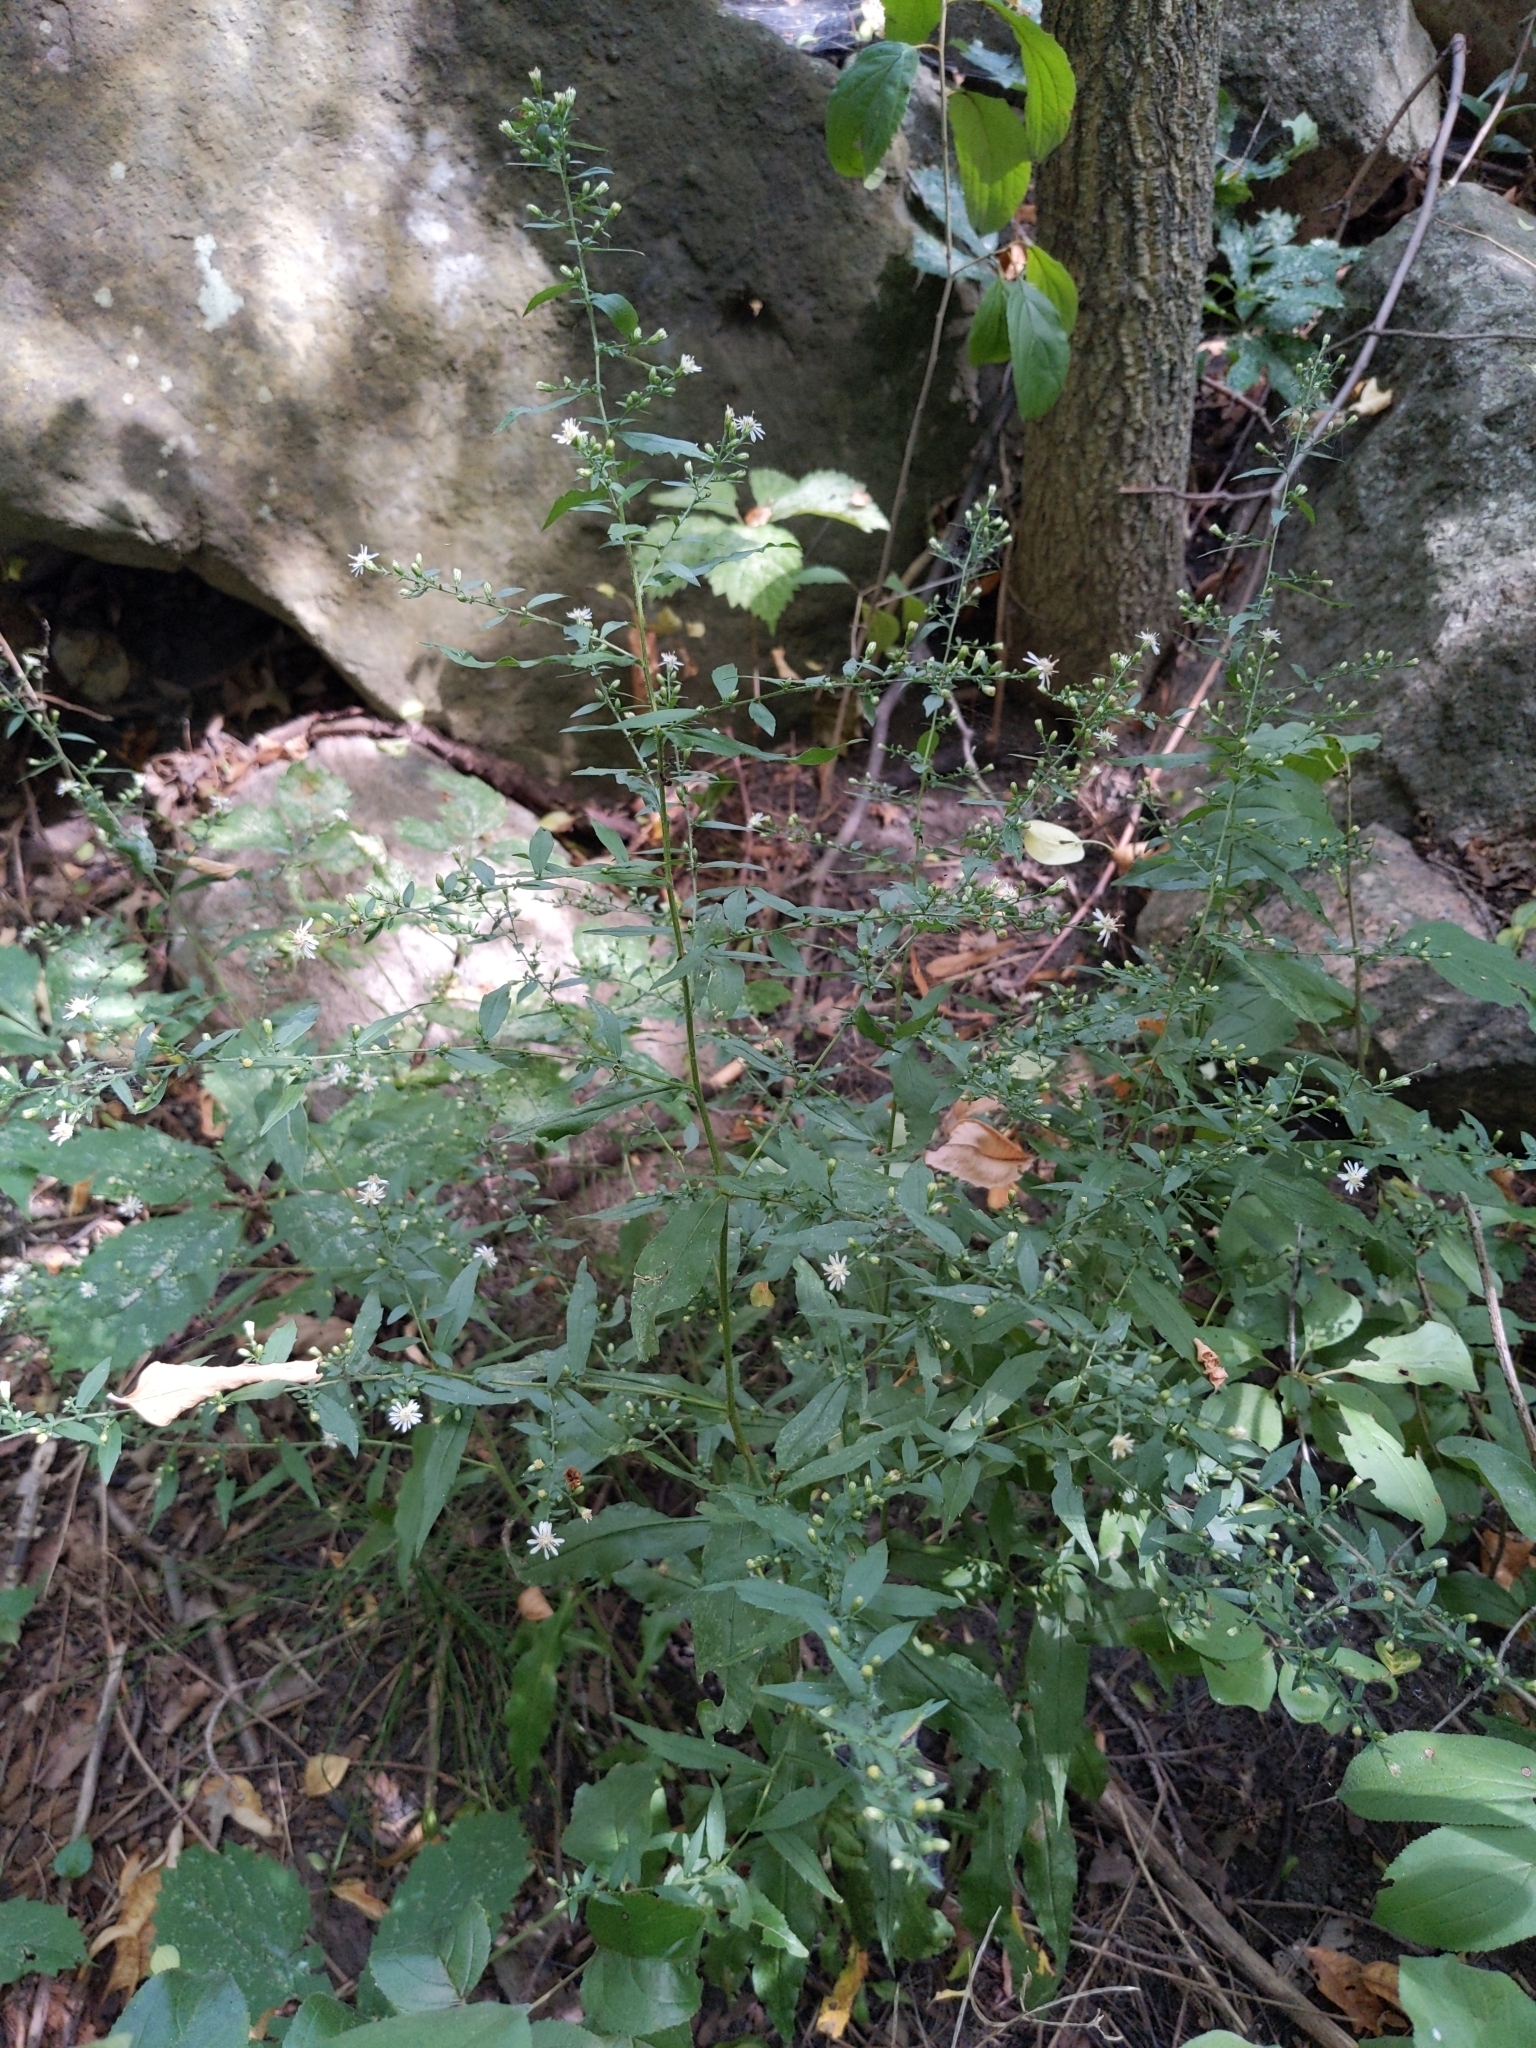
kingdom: Plantae
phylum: Tracheophyta
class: Magnoliopsida
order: Asterales
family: Asteraceae
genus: Symphyotrichum
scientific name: Symphyotrichum lateriflorum
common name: Calico aster
